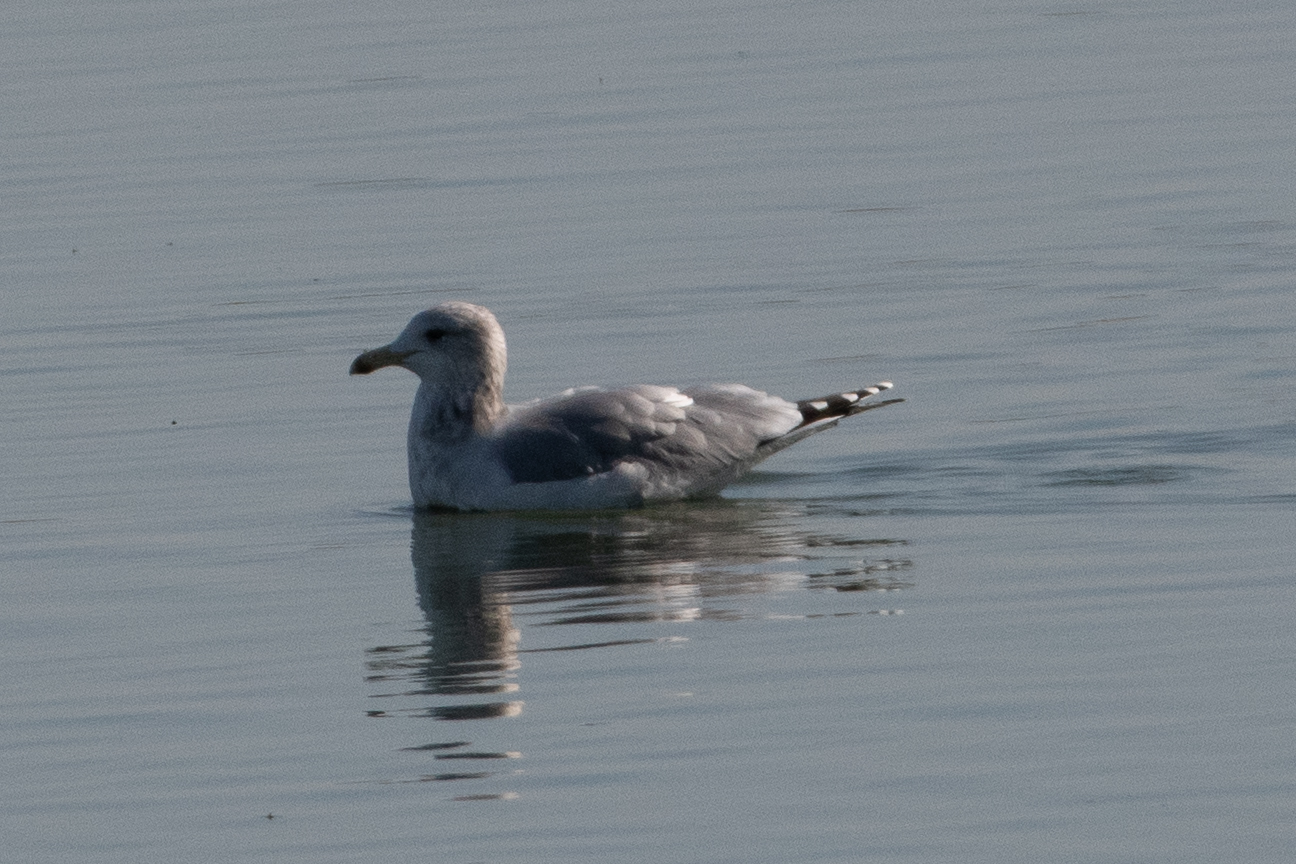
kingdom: Animalia
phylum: Chordata
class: Aves
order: Charadriiformes
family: Laridae
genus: Larus
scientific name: Larus californicus
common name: California gull
